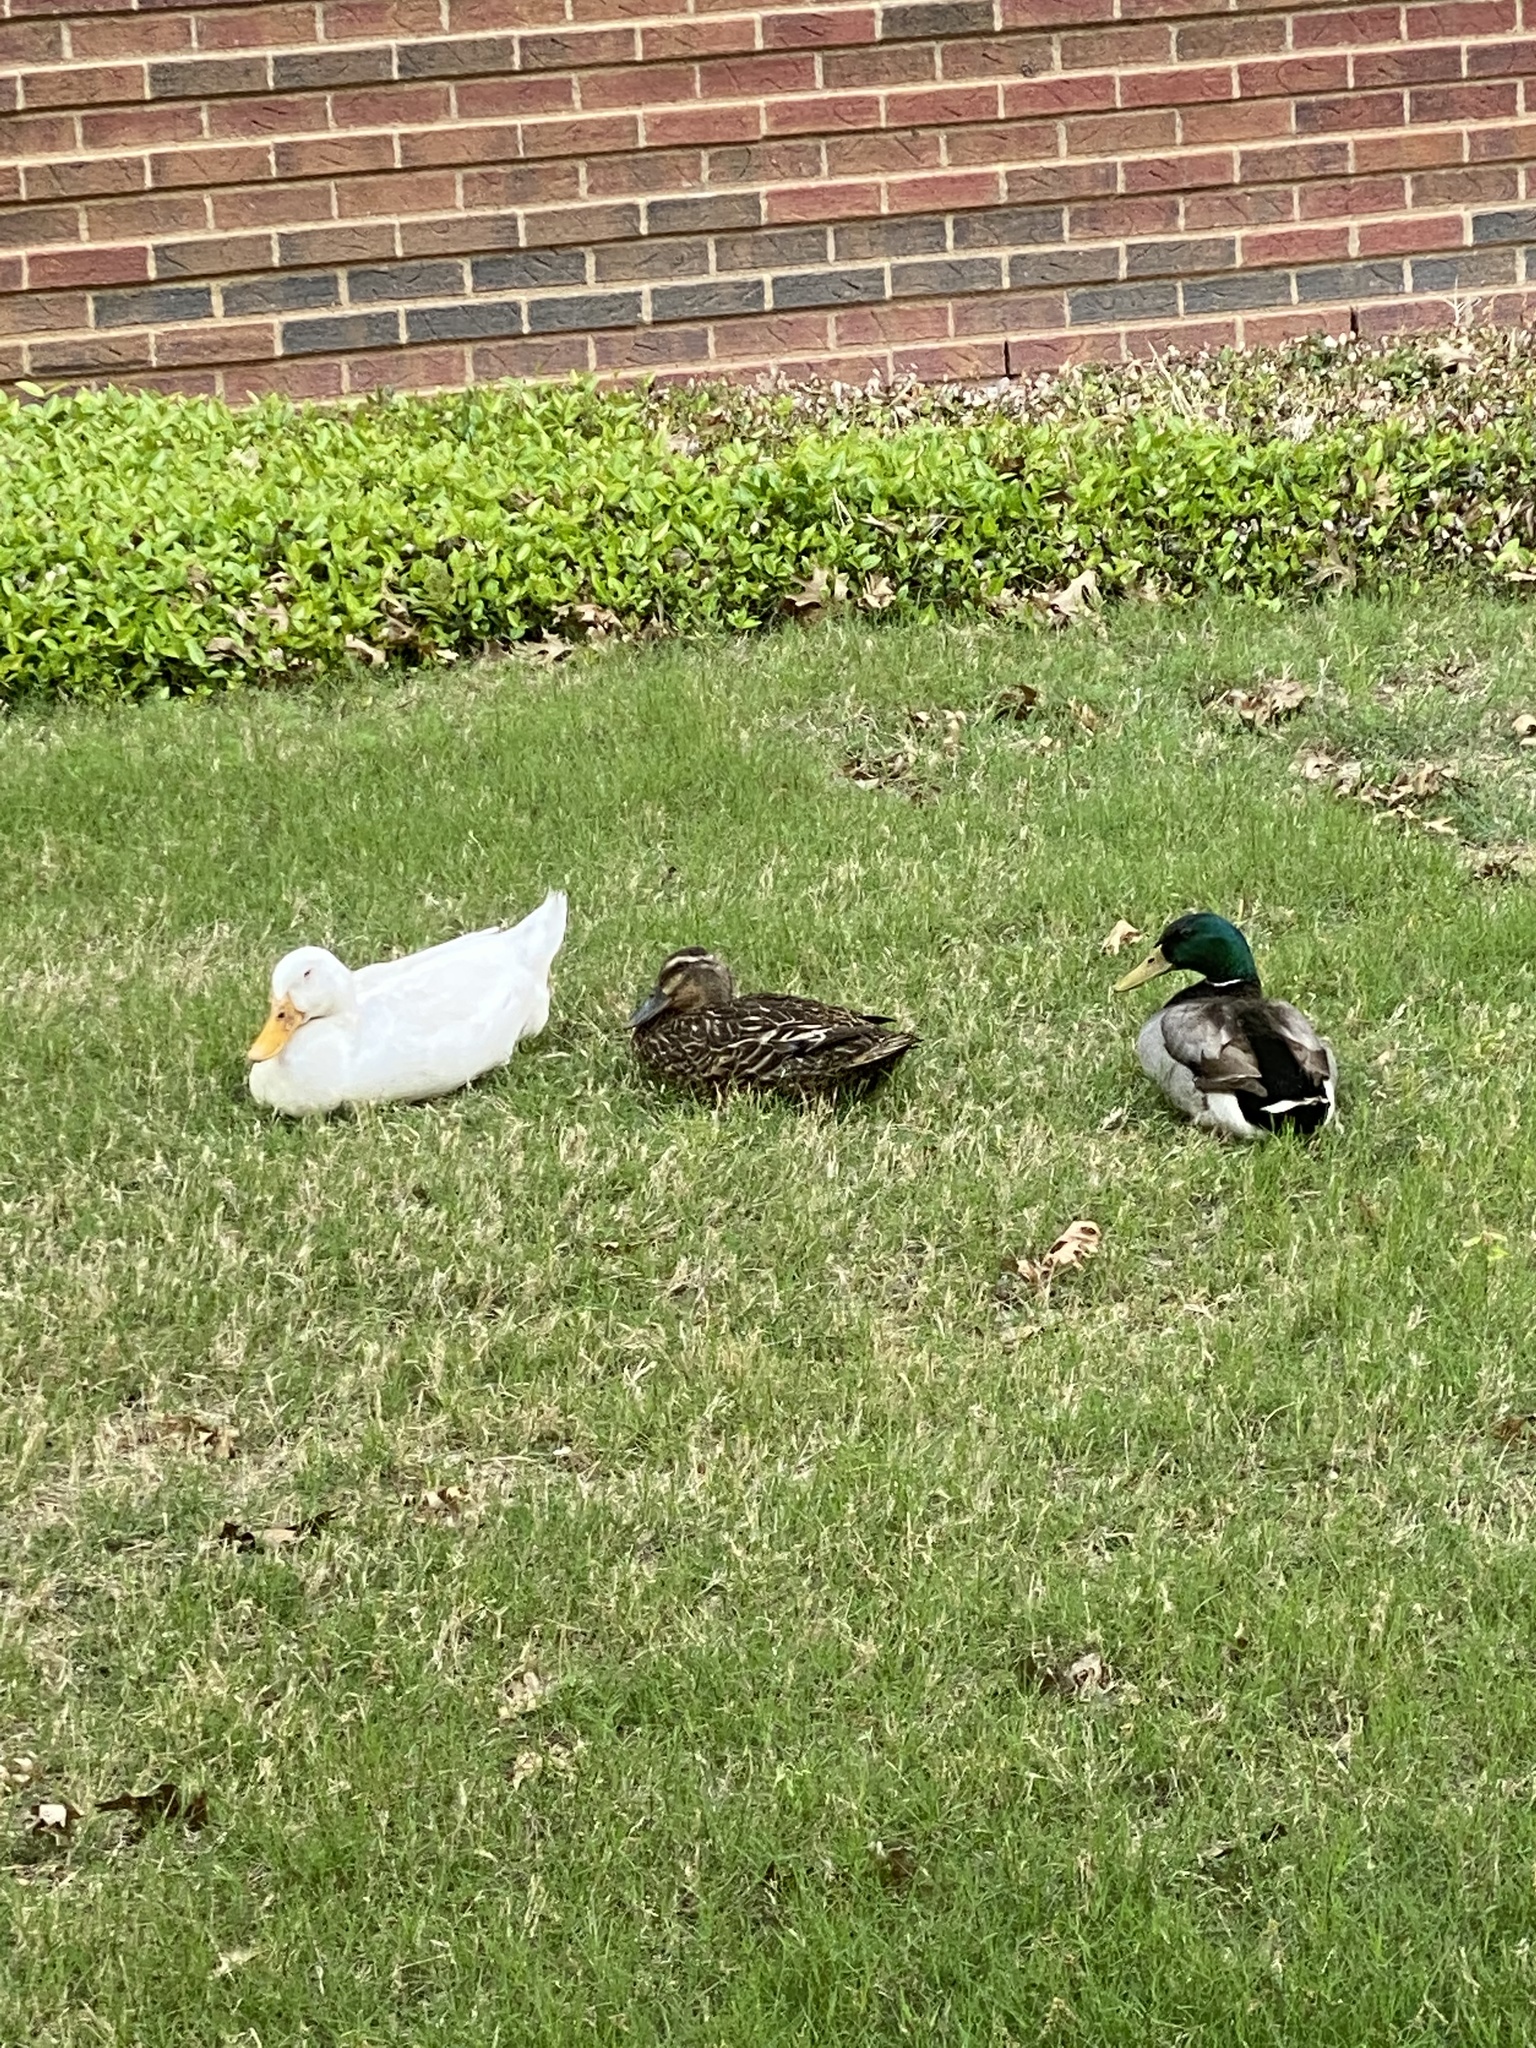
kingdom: Animalia
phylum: Chordata
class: Aves
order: Anseriformes
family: Anatidae
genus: Anas
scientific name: Anas platyrhynchos
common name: Mallard
